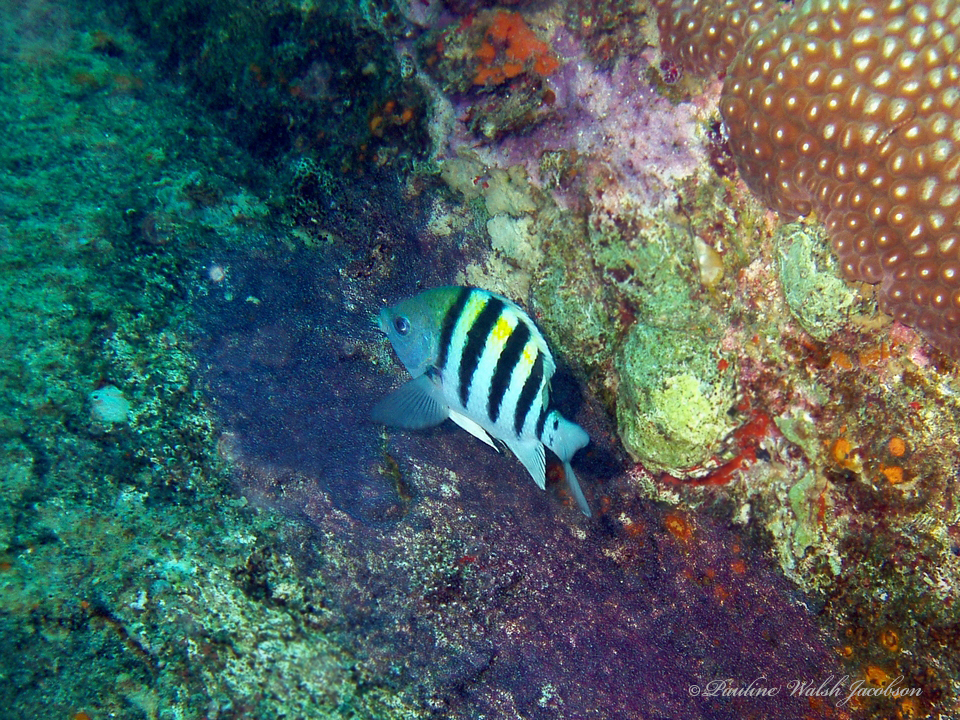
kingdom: Animalia
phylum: Chordata
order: Perciformes
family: Pomacentridae
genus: Abudefduf
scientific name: Abudefduf saxatilis
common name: Sergeant major
